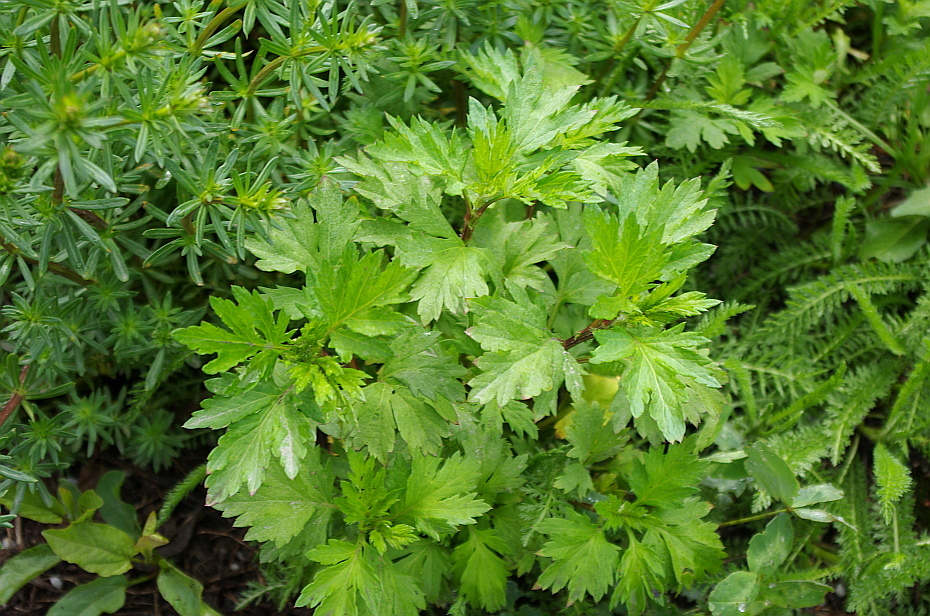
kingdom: Plantae
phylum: Tracheophyta
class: Magnoliopsida
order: Asterales
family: Asteraceae
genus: Artemisia
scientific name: Artemisia vulgaris
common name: Mugwort
